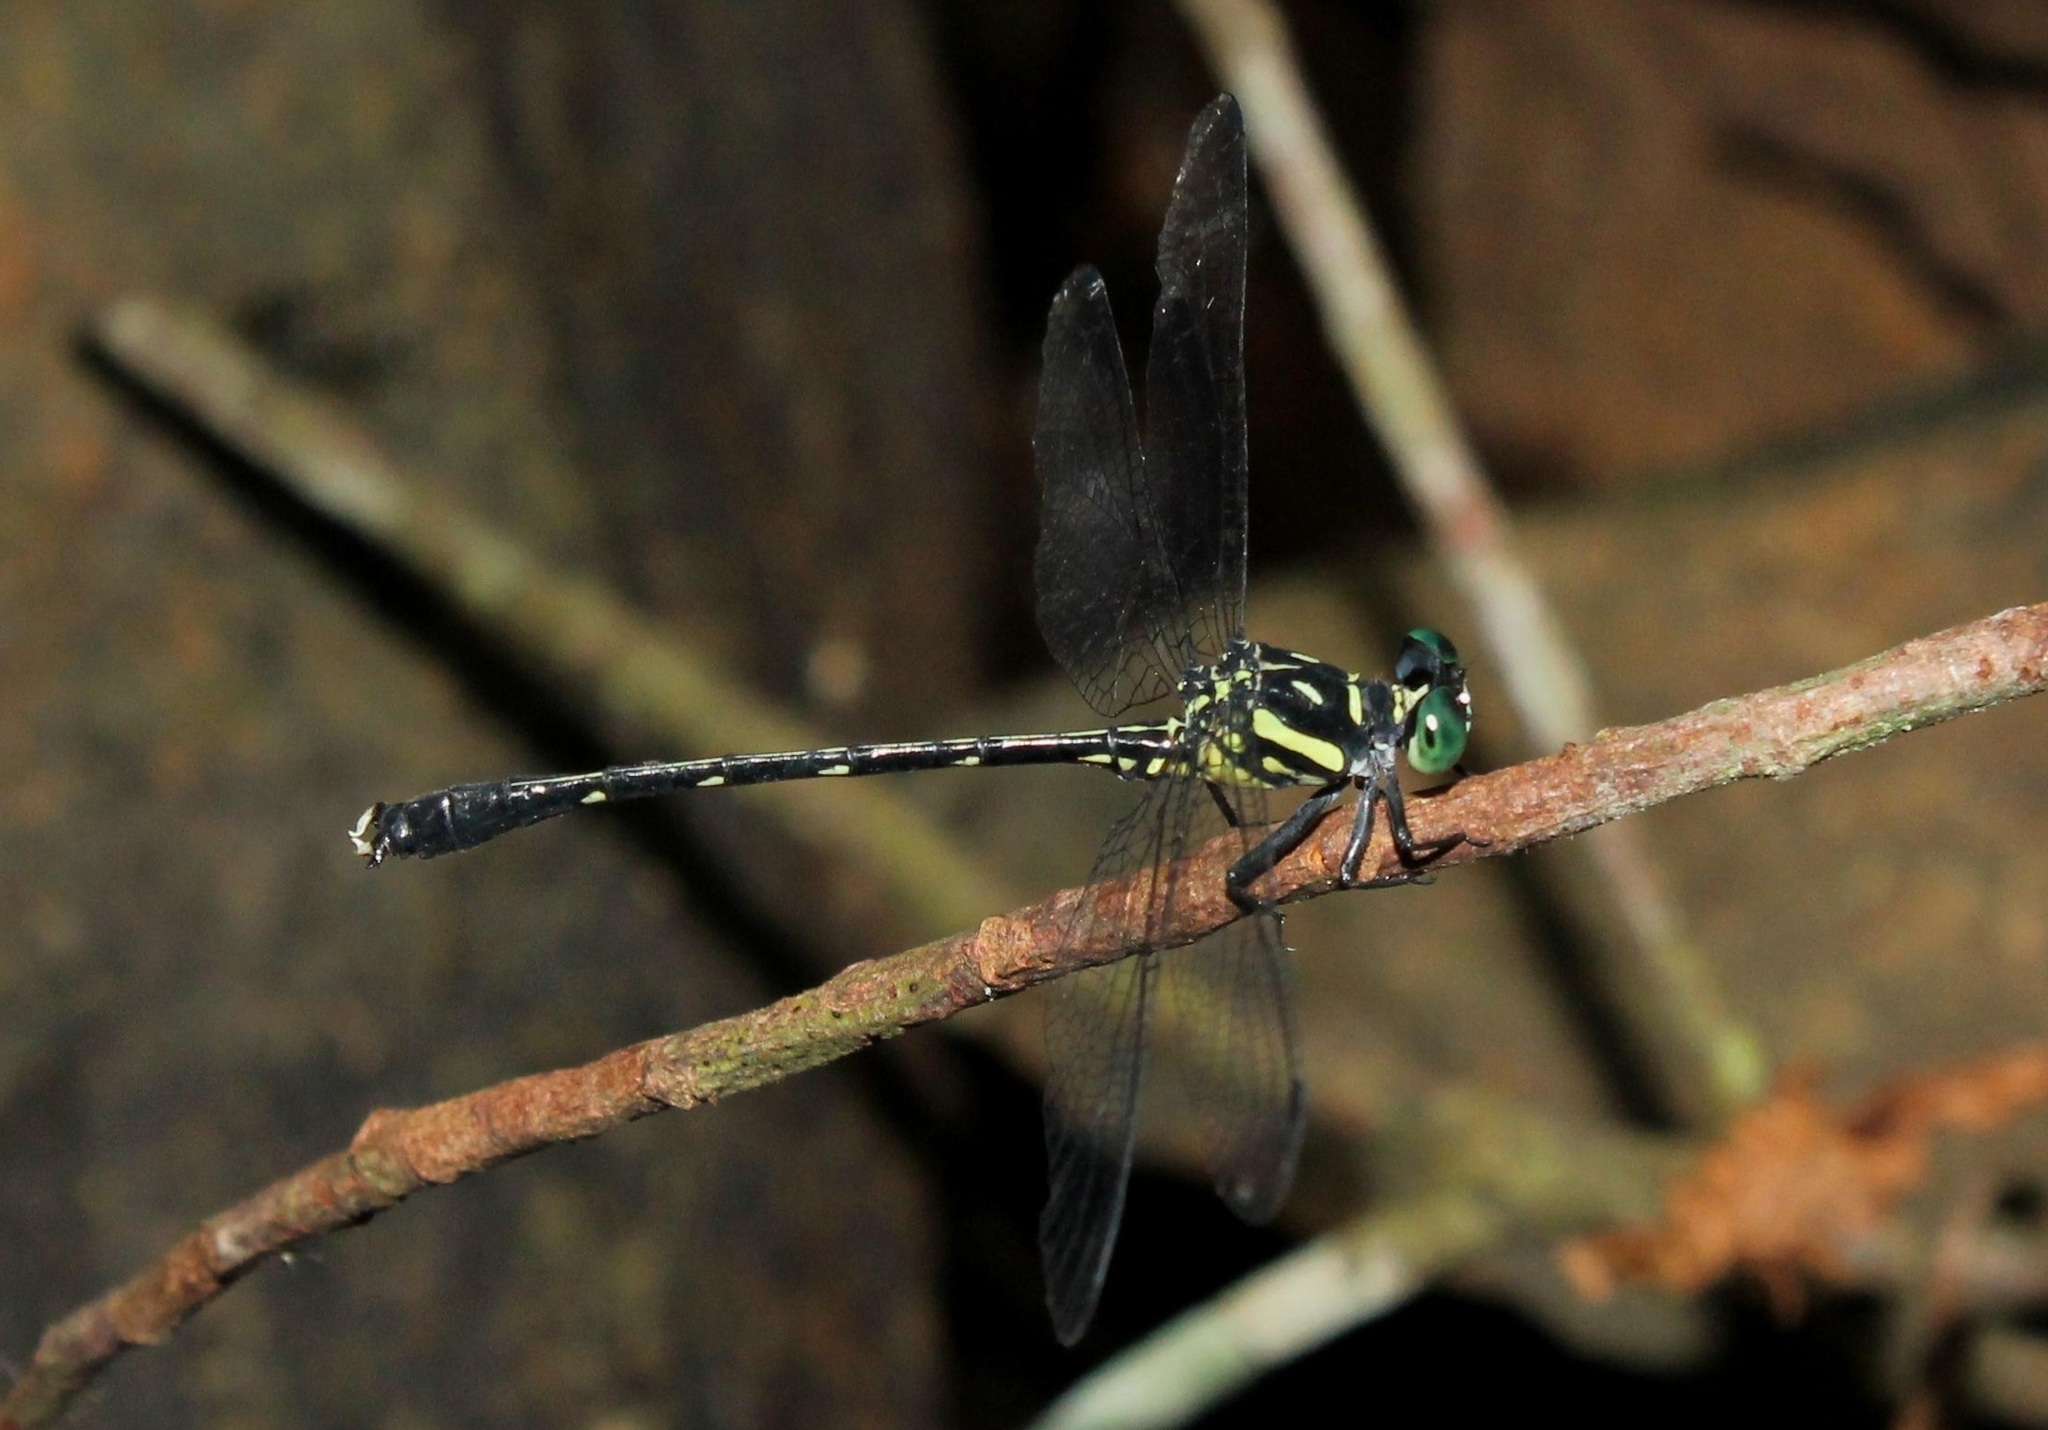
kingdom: Animalia
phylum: Arthropoda
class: Insecta
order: Odonata
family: Gomphidae
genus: Heliogomphus
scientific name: Heliogomphus lyratus
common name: Lyrate grappletail
